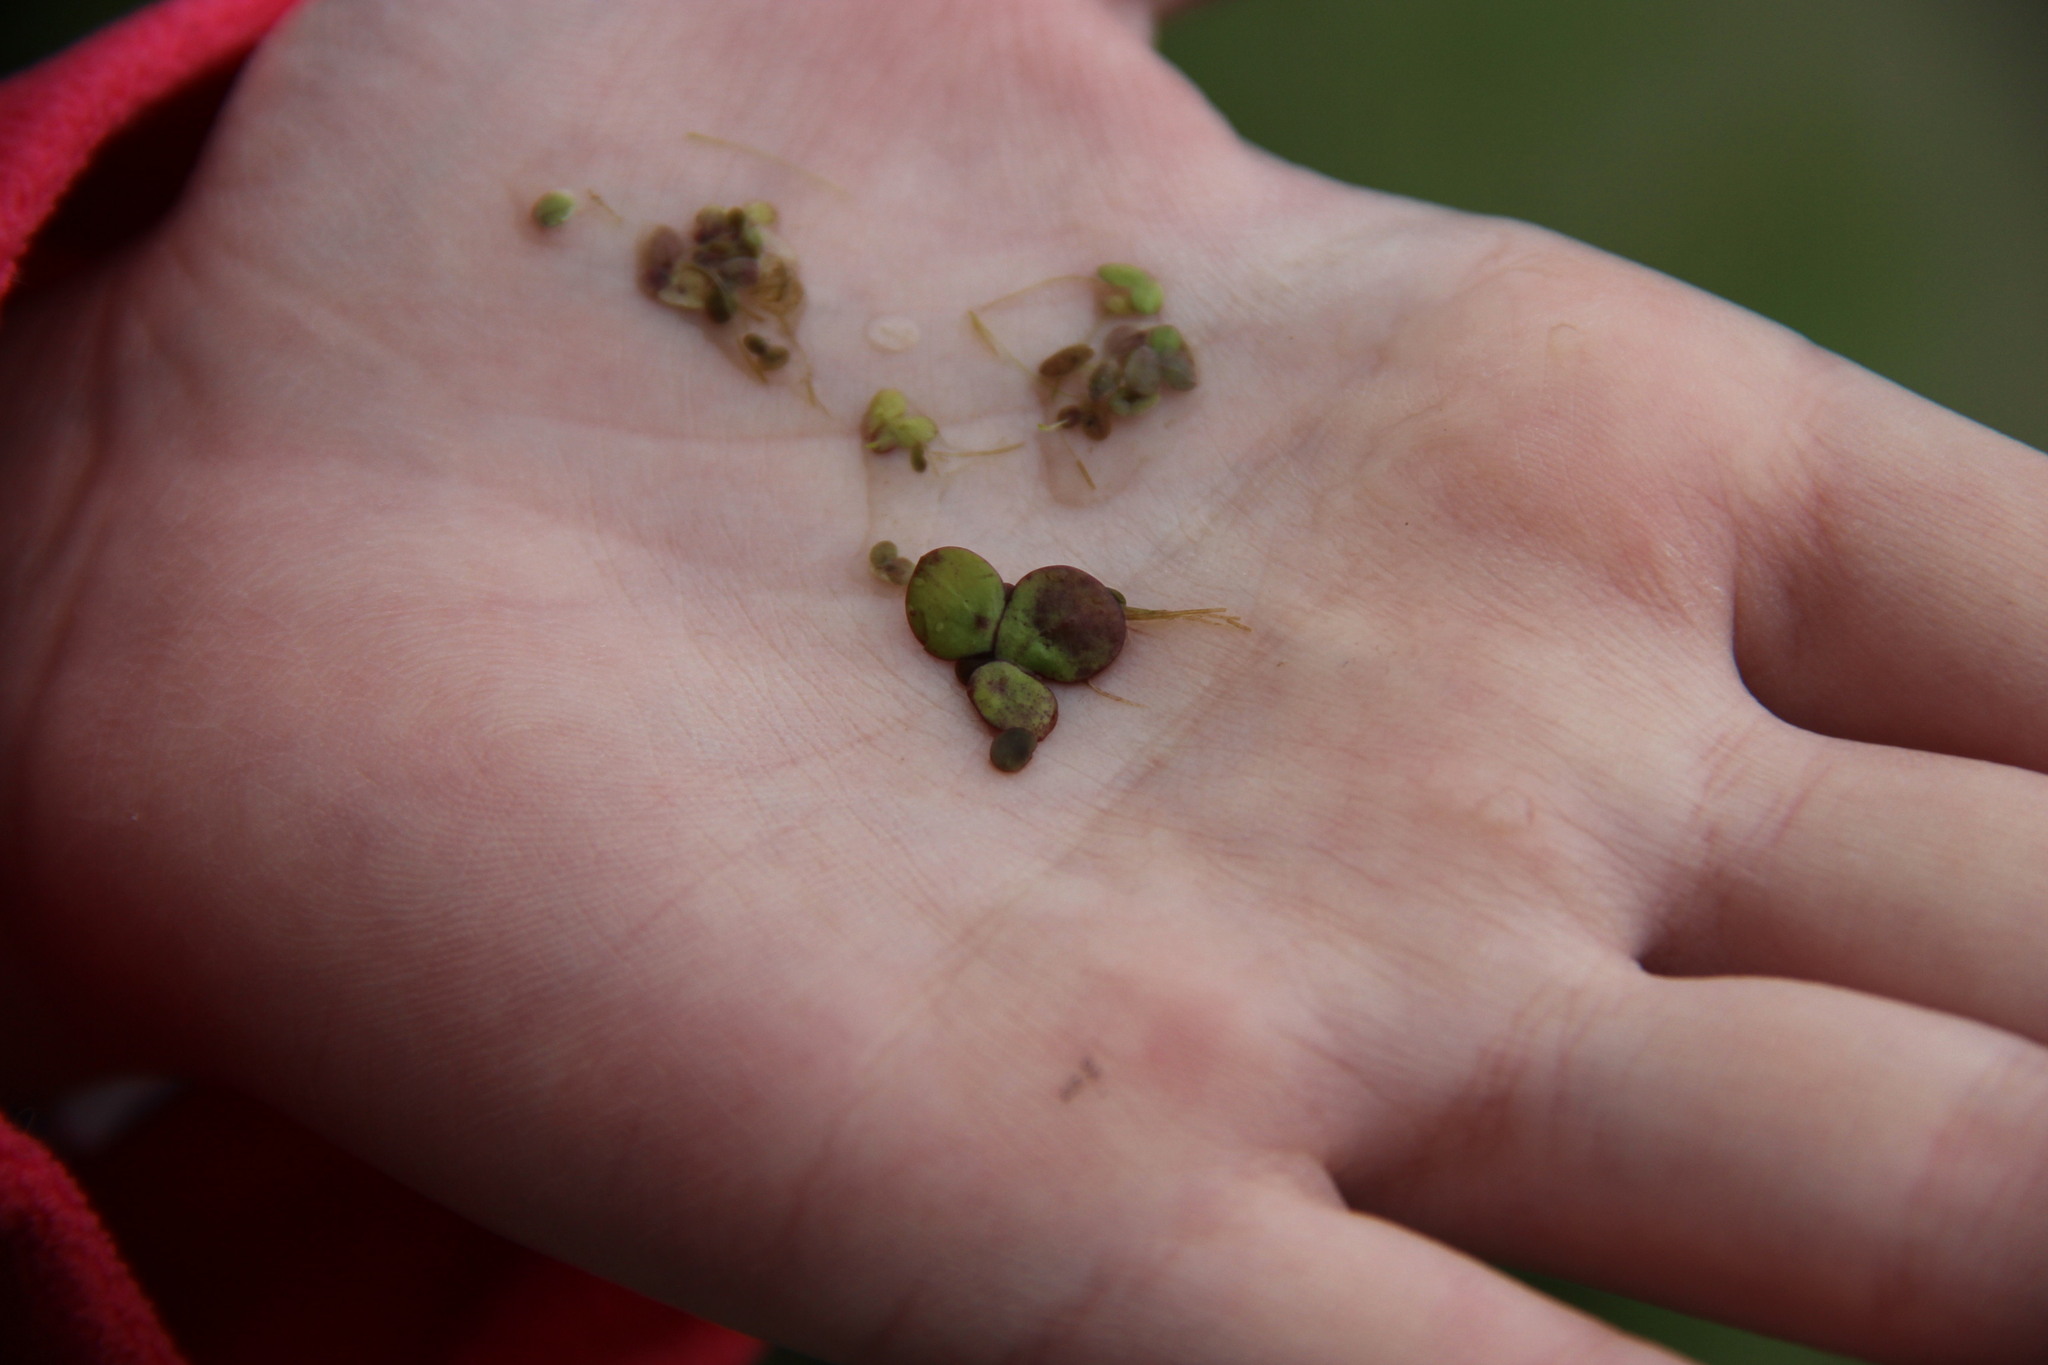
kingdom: Plantae
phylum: Tracheophyta
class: Liliopsida
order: Alismatales
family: Araceae
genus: Spirodela
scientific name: Spirodela polyrhiza
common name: Great duckweed
